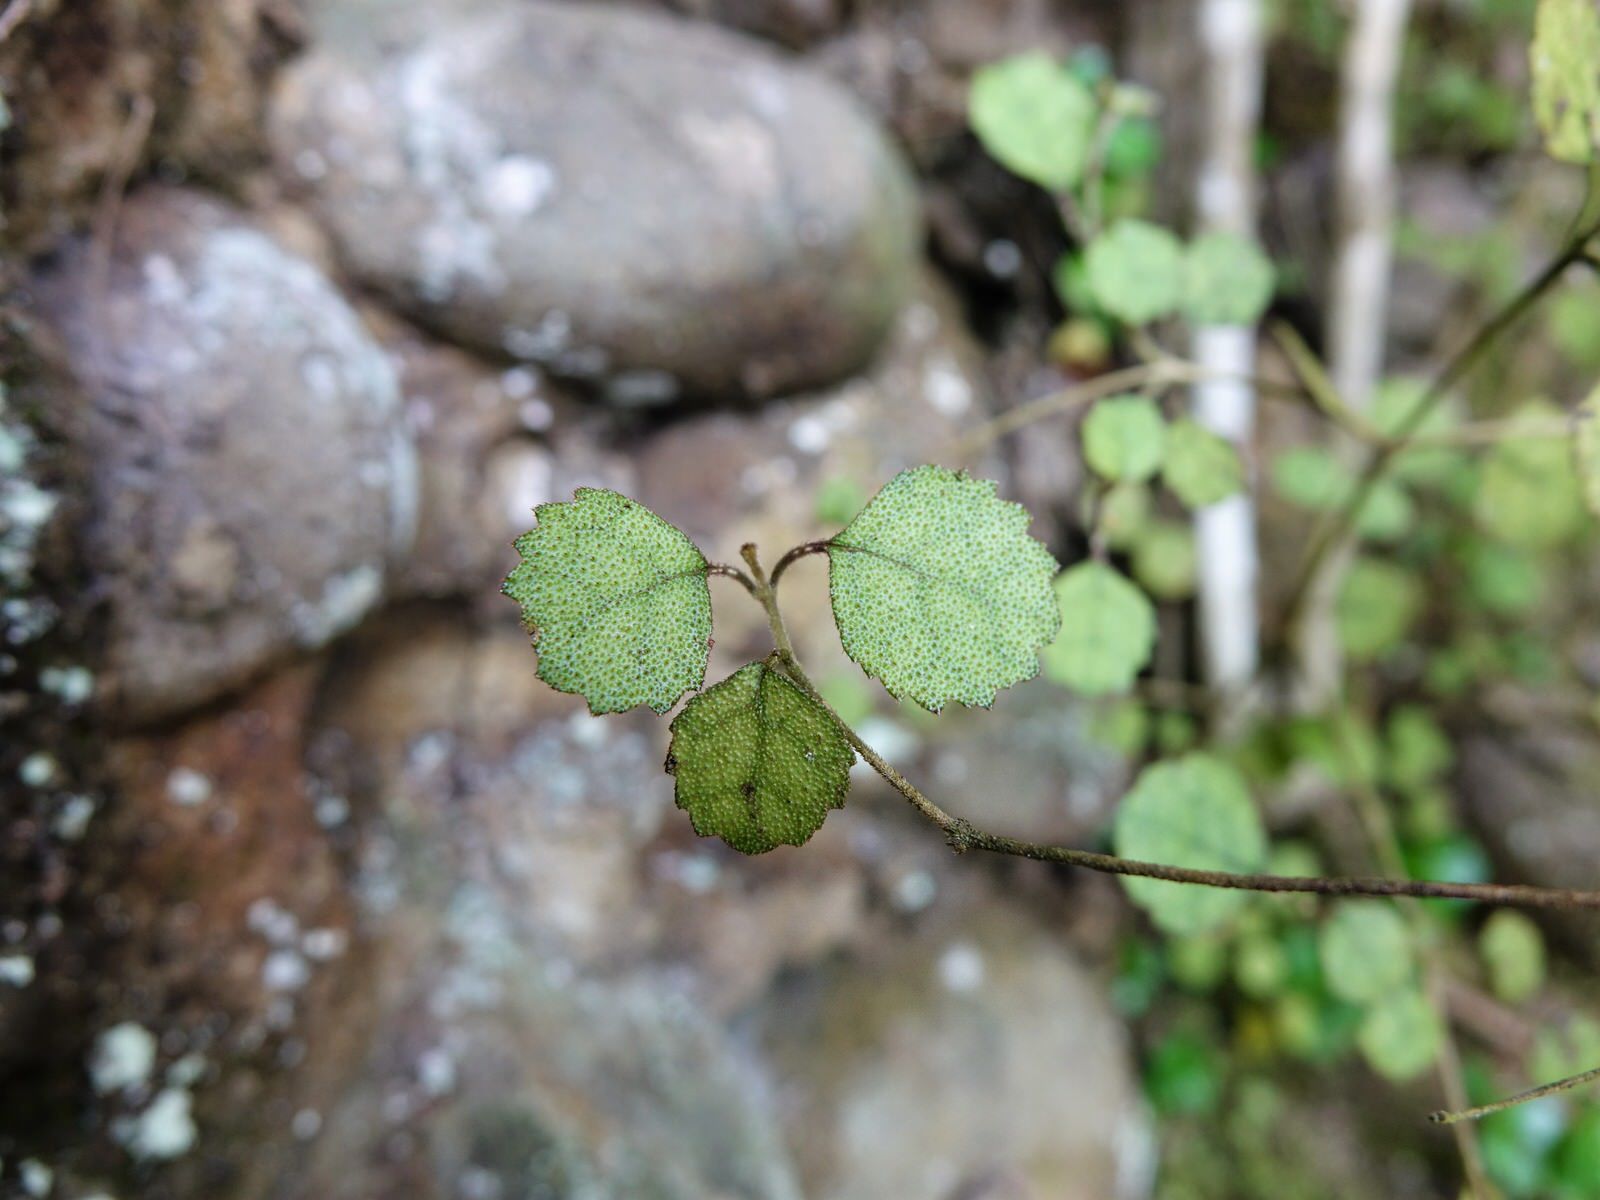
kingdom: Plantae
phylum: Tracheophyta
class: Magnoliopsida
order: Lamiales
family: Gesneriaceae
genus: Rhabdothamnus
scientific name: Rhabdothamnus solandri
